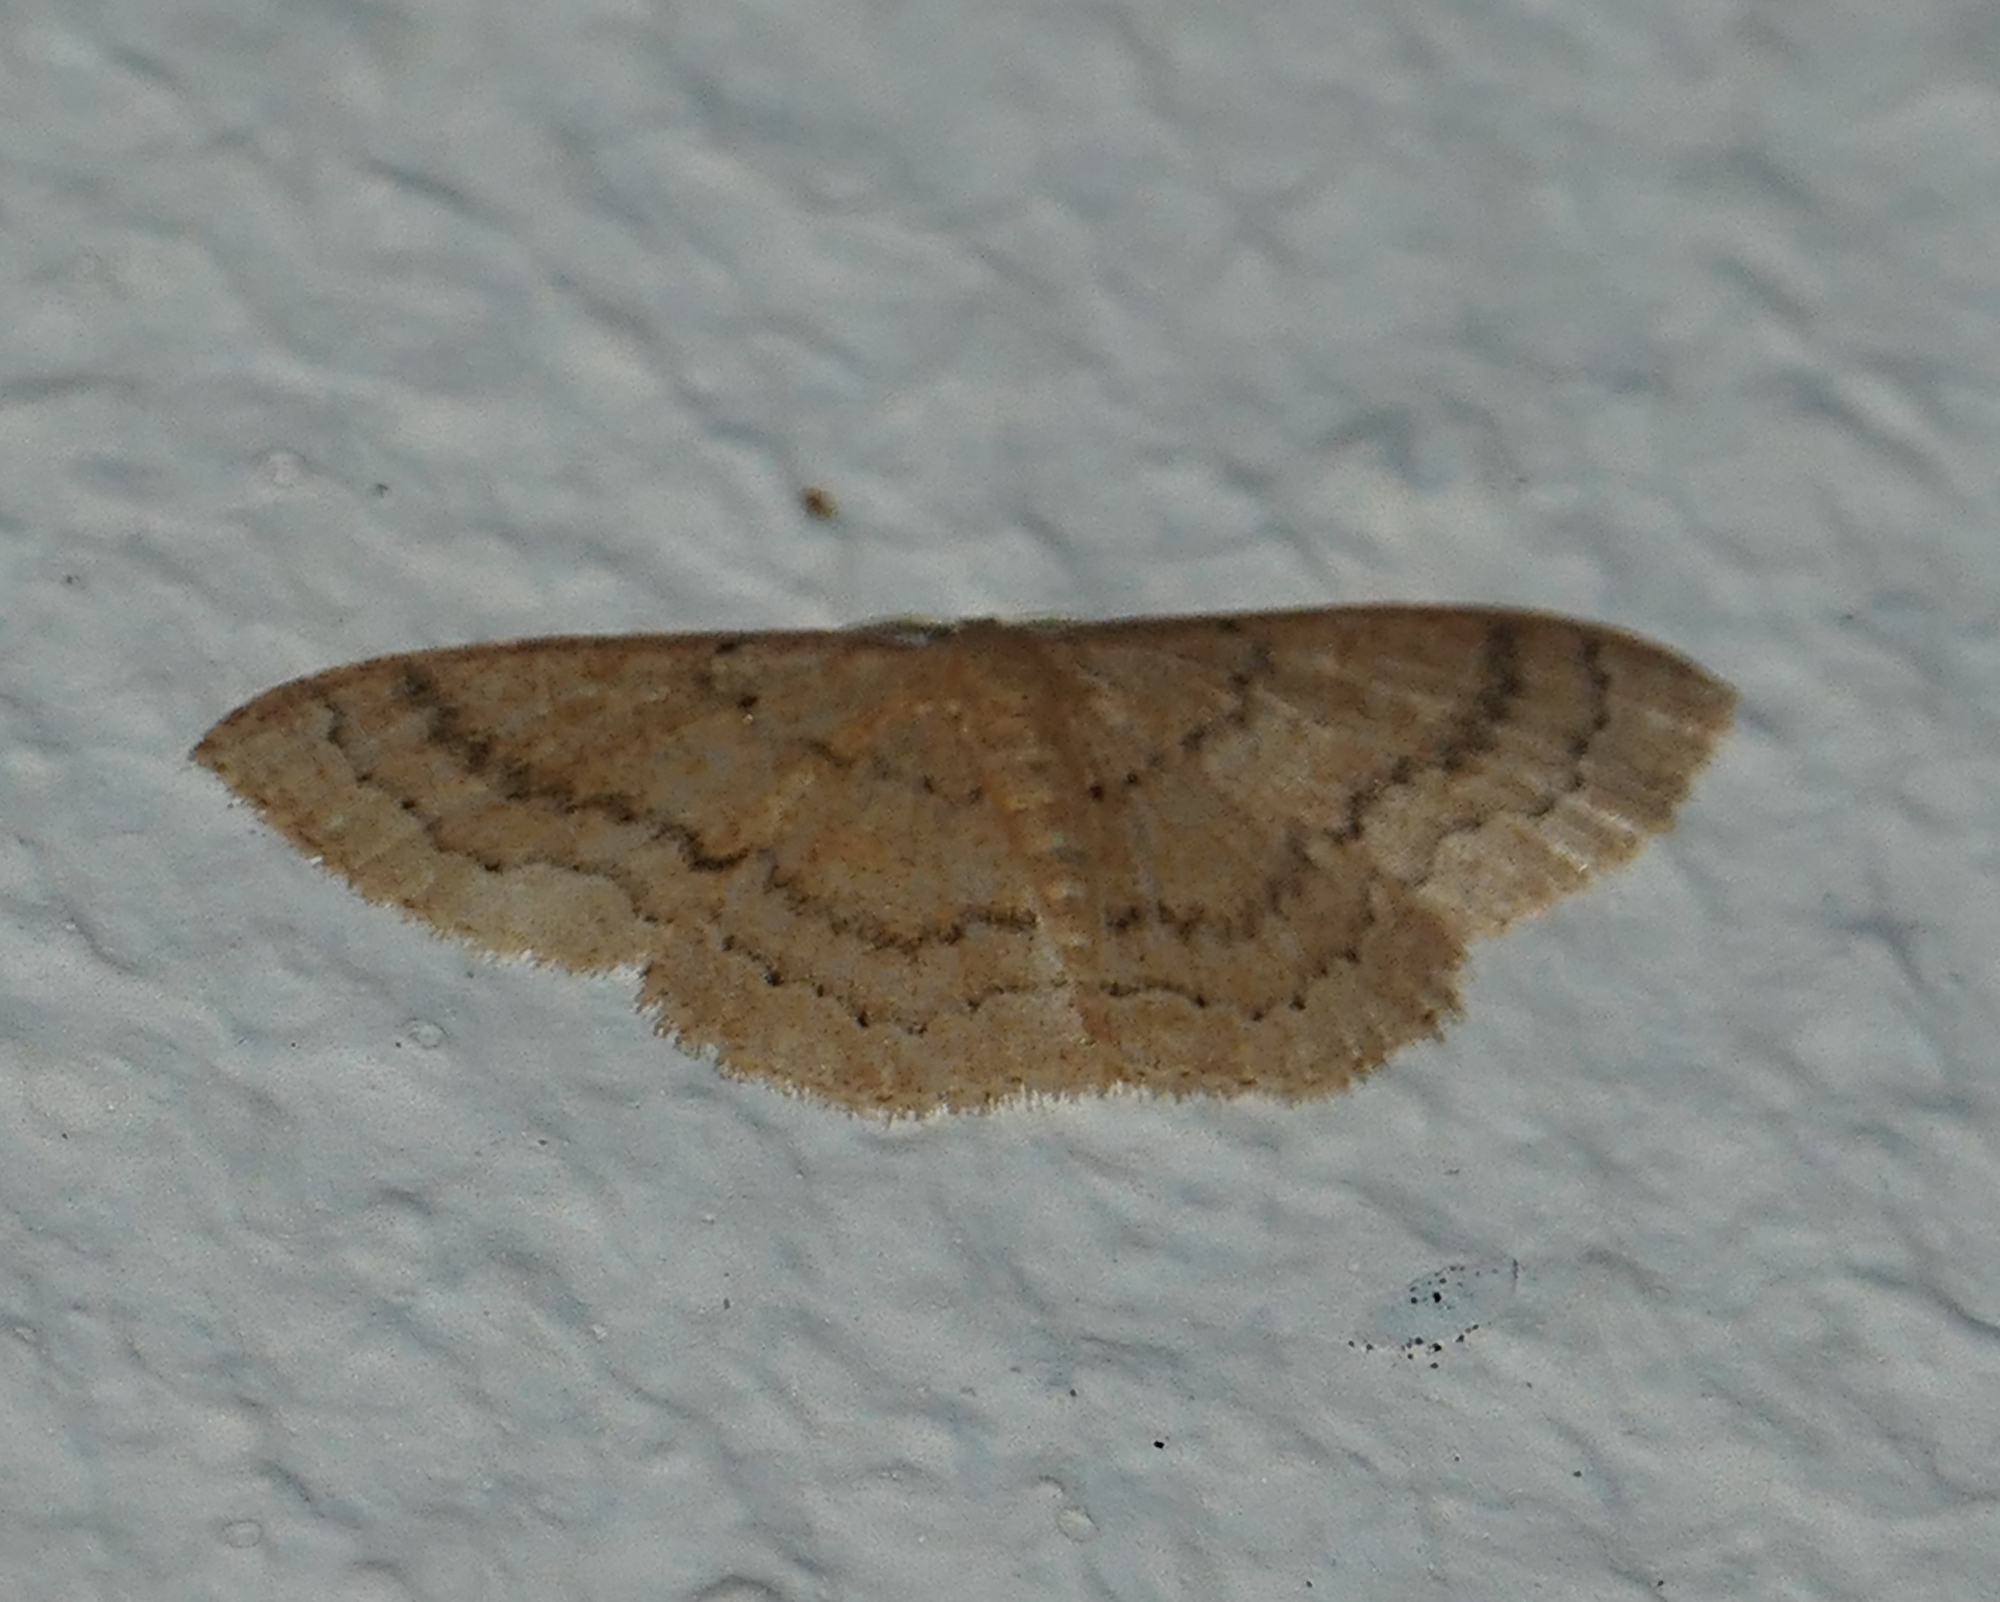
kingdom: Animalia
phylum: Arthropoda
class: Insecta
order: Lepidoptera
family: Geometridae
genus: Pleuroprucha
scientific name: Pleuroprucha insulsaria
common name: Common tan wave
